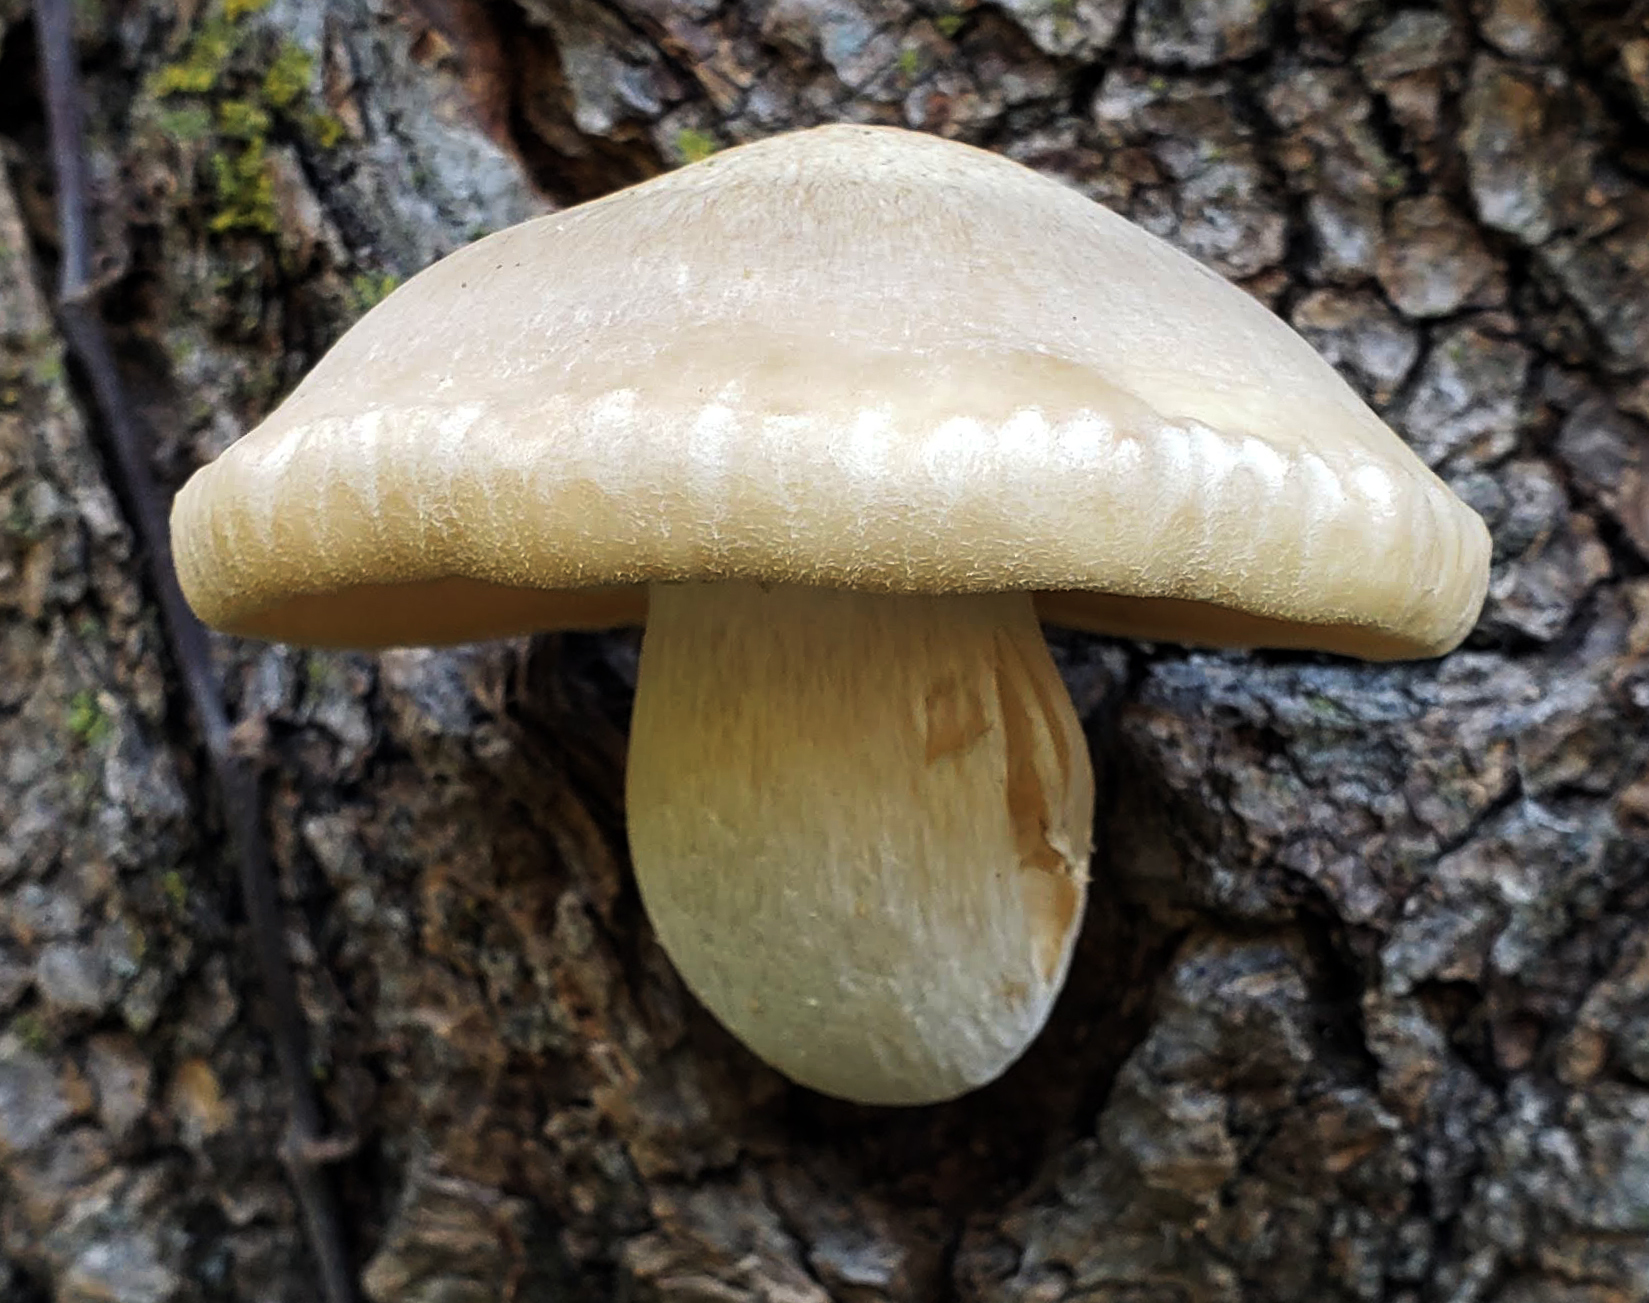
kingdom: Fungi
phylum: Basidiomycota
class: Agaricomycetes
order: Agaricales
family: Lyophyllaceae
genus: Hypsizygus
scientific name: Hypsizygus ulmarius
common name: Elm leech
